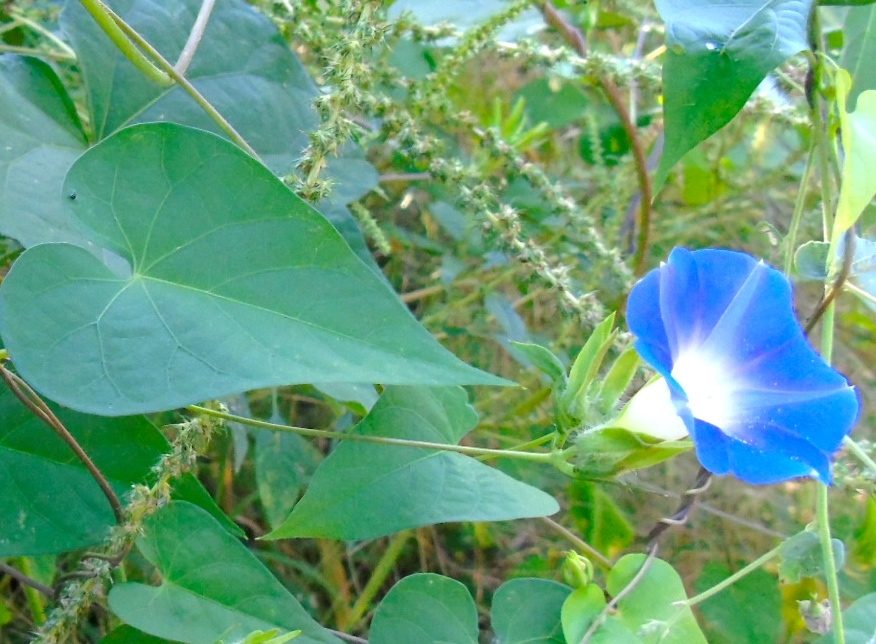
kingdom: Plantae
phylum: Tracheophyta
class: Magnoliopsida
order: Solanales
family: Convolvulaceae
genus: Ipomoea
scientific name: Ipomoea meyeri
